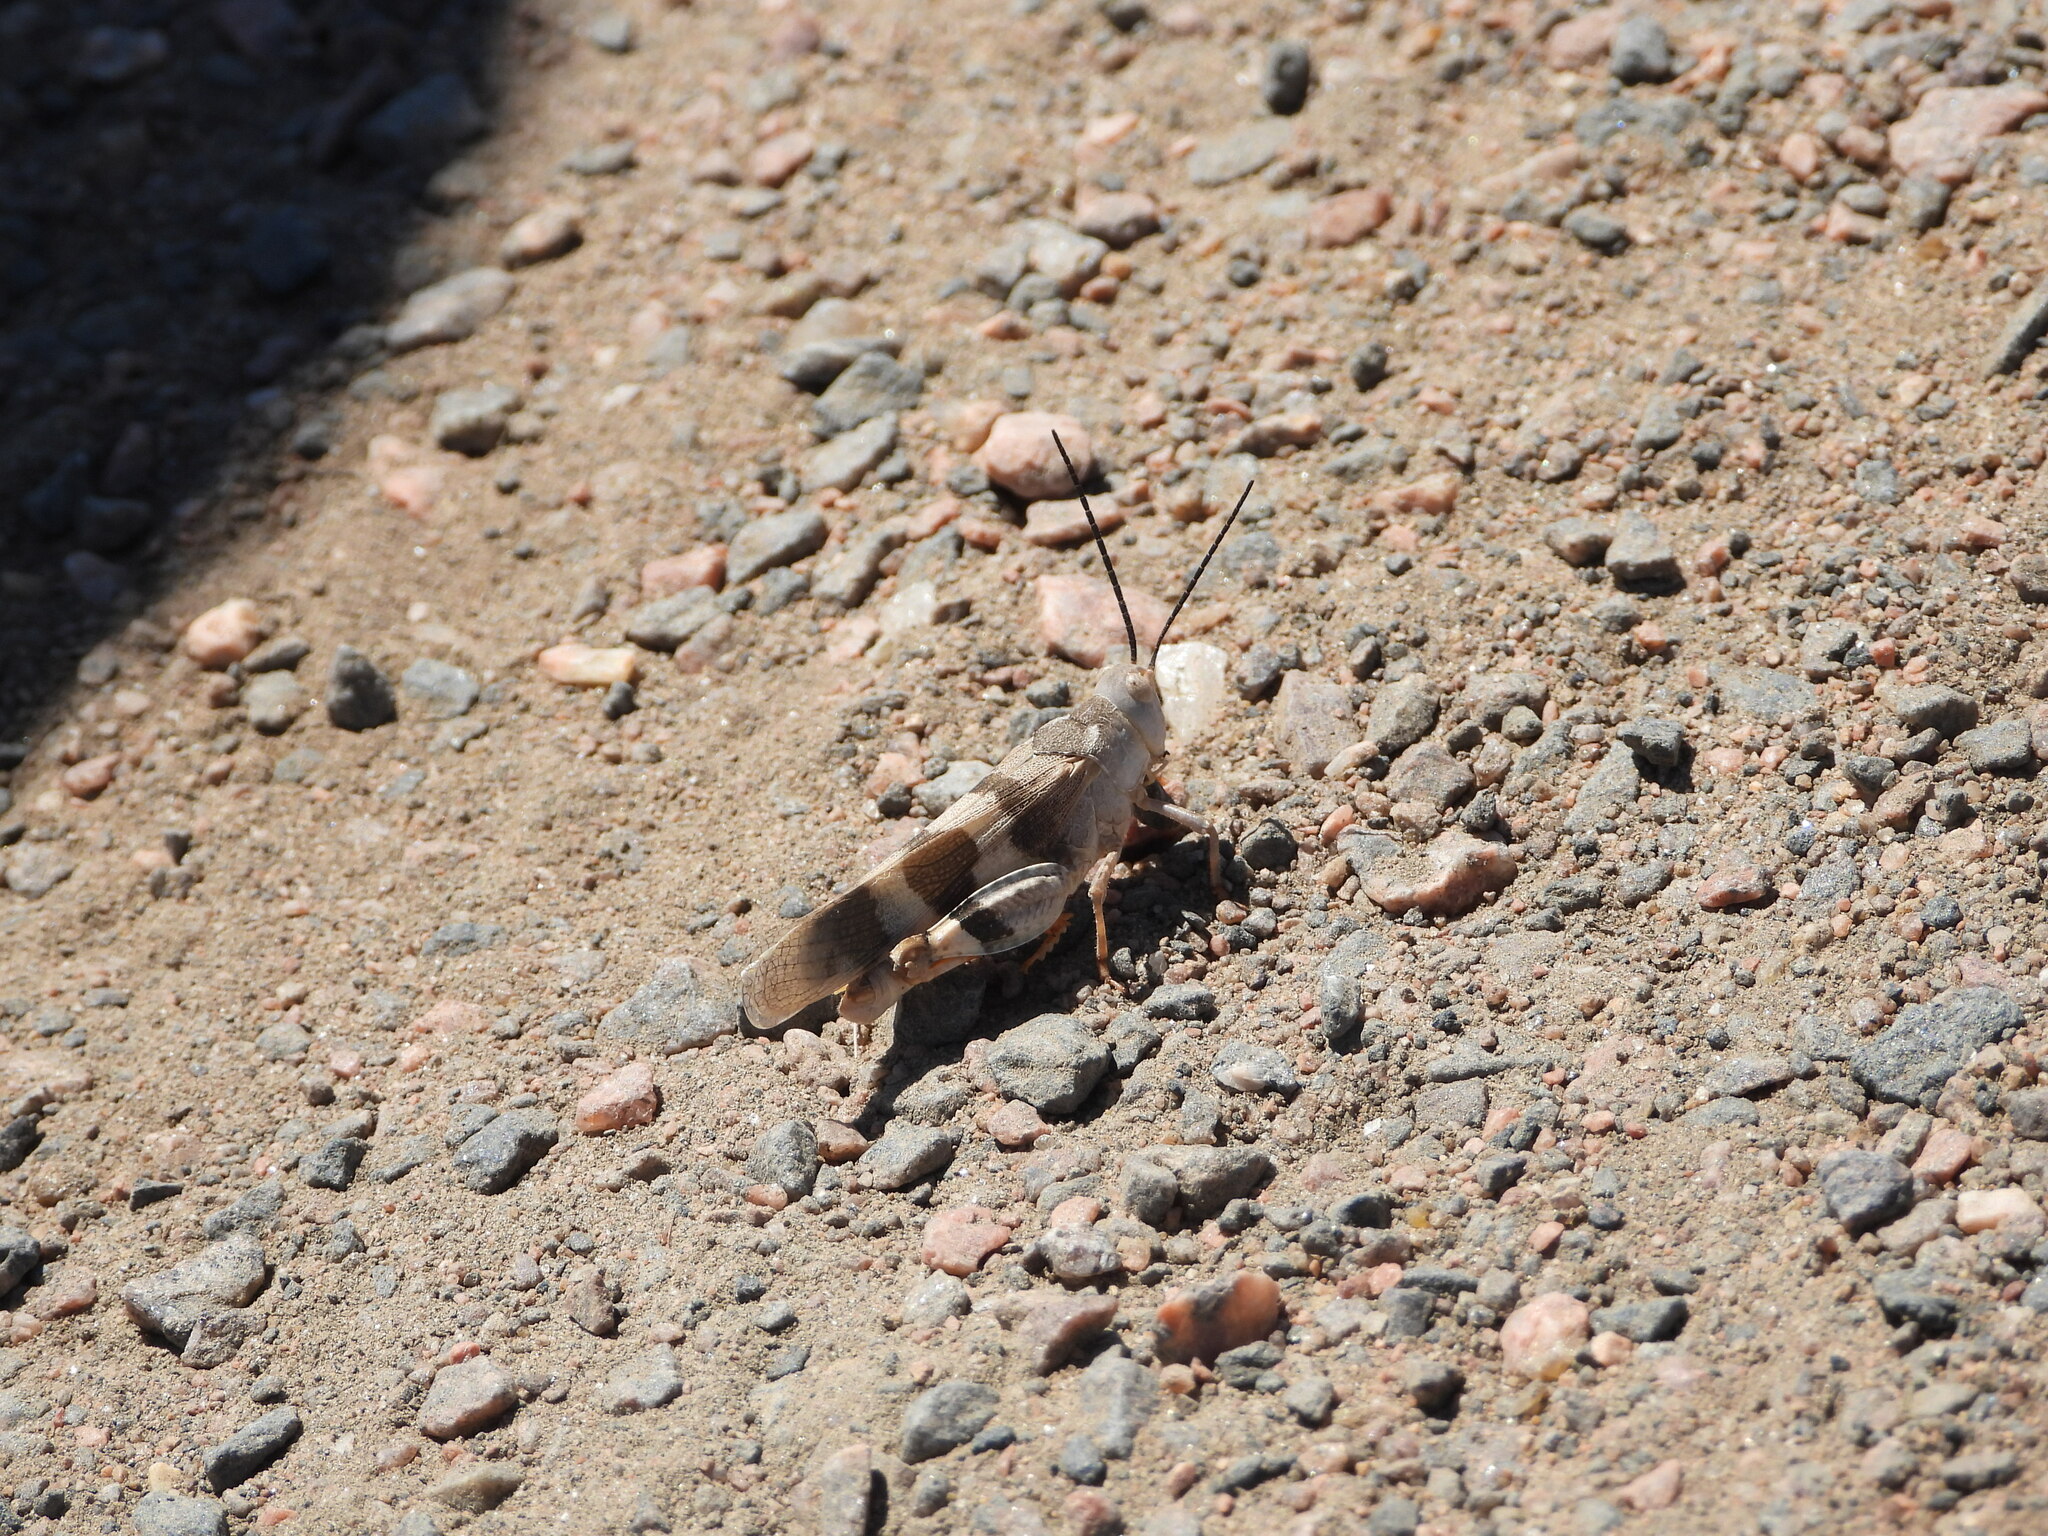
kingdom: Animalia
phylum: Arthropoda
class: Insecta
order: Orthoptera
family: Acrididae
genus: Hadrotettix
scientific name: Hadrotettix trifasciatus
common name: Threebanded grasshopper
